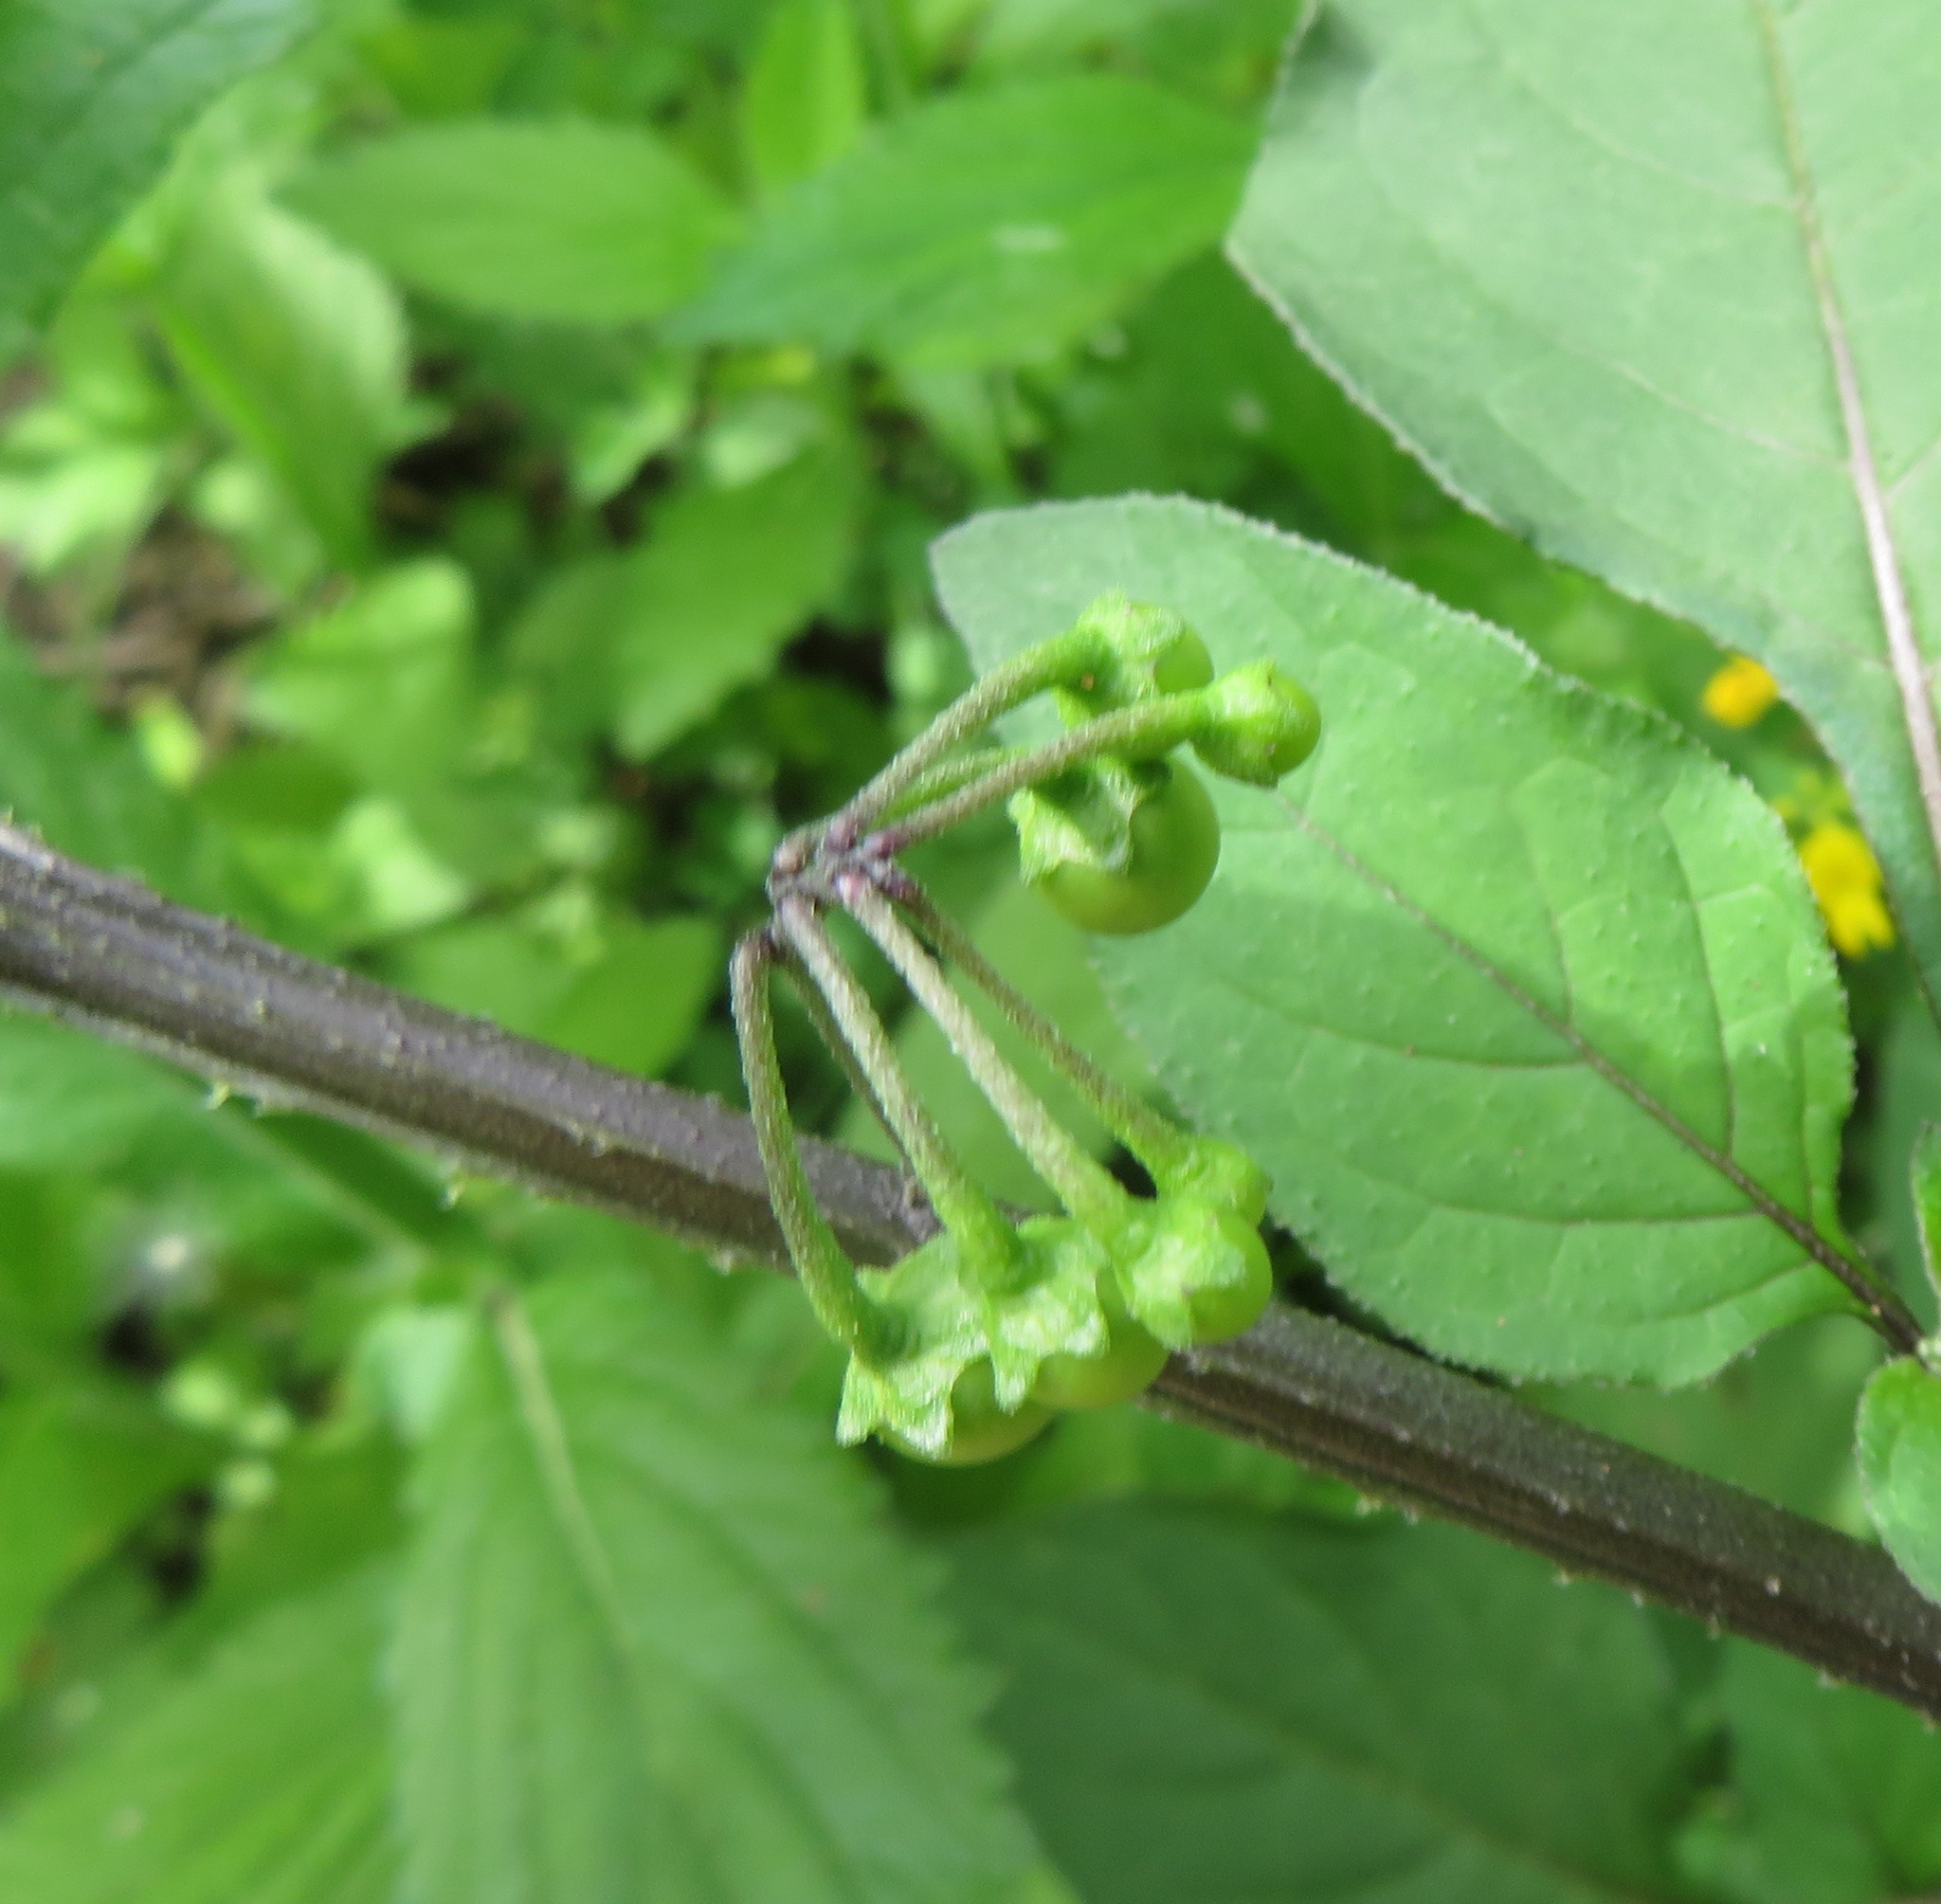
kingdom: Plantae
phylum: Tracheophyta
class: Magnoliopsida
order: Solanales
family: Solanaceae
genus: Solanum
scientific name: Solanum nigrum
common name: Black nightshade
